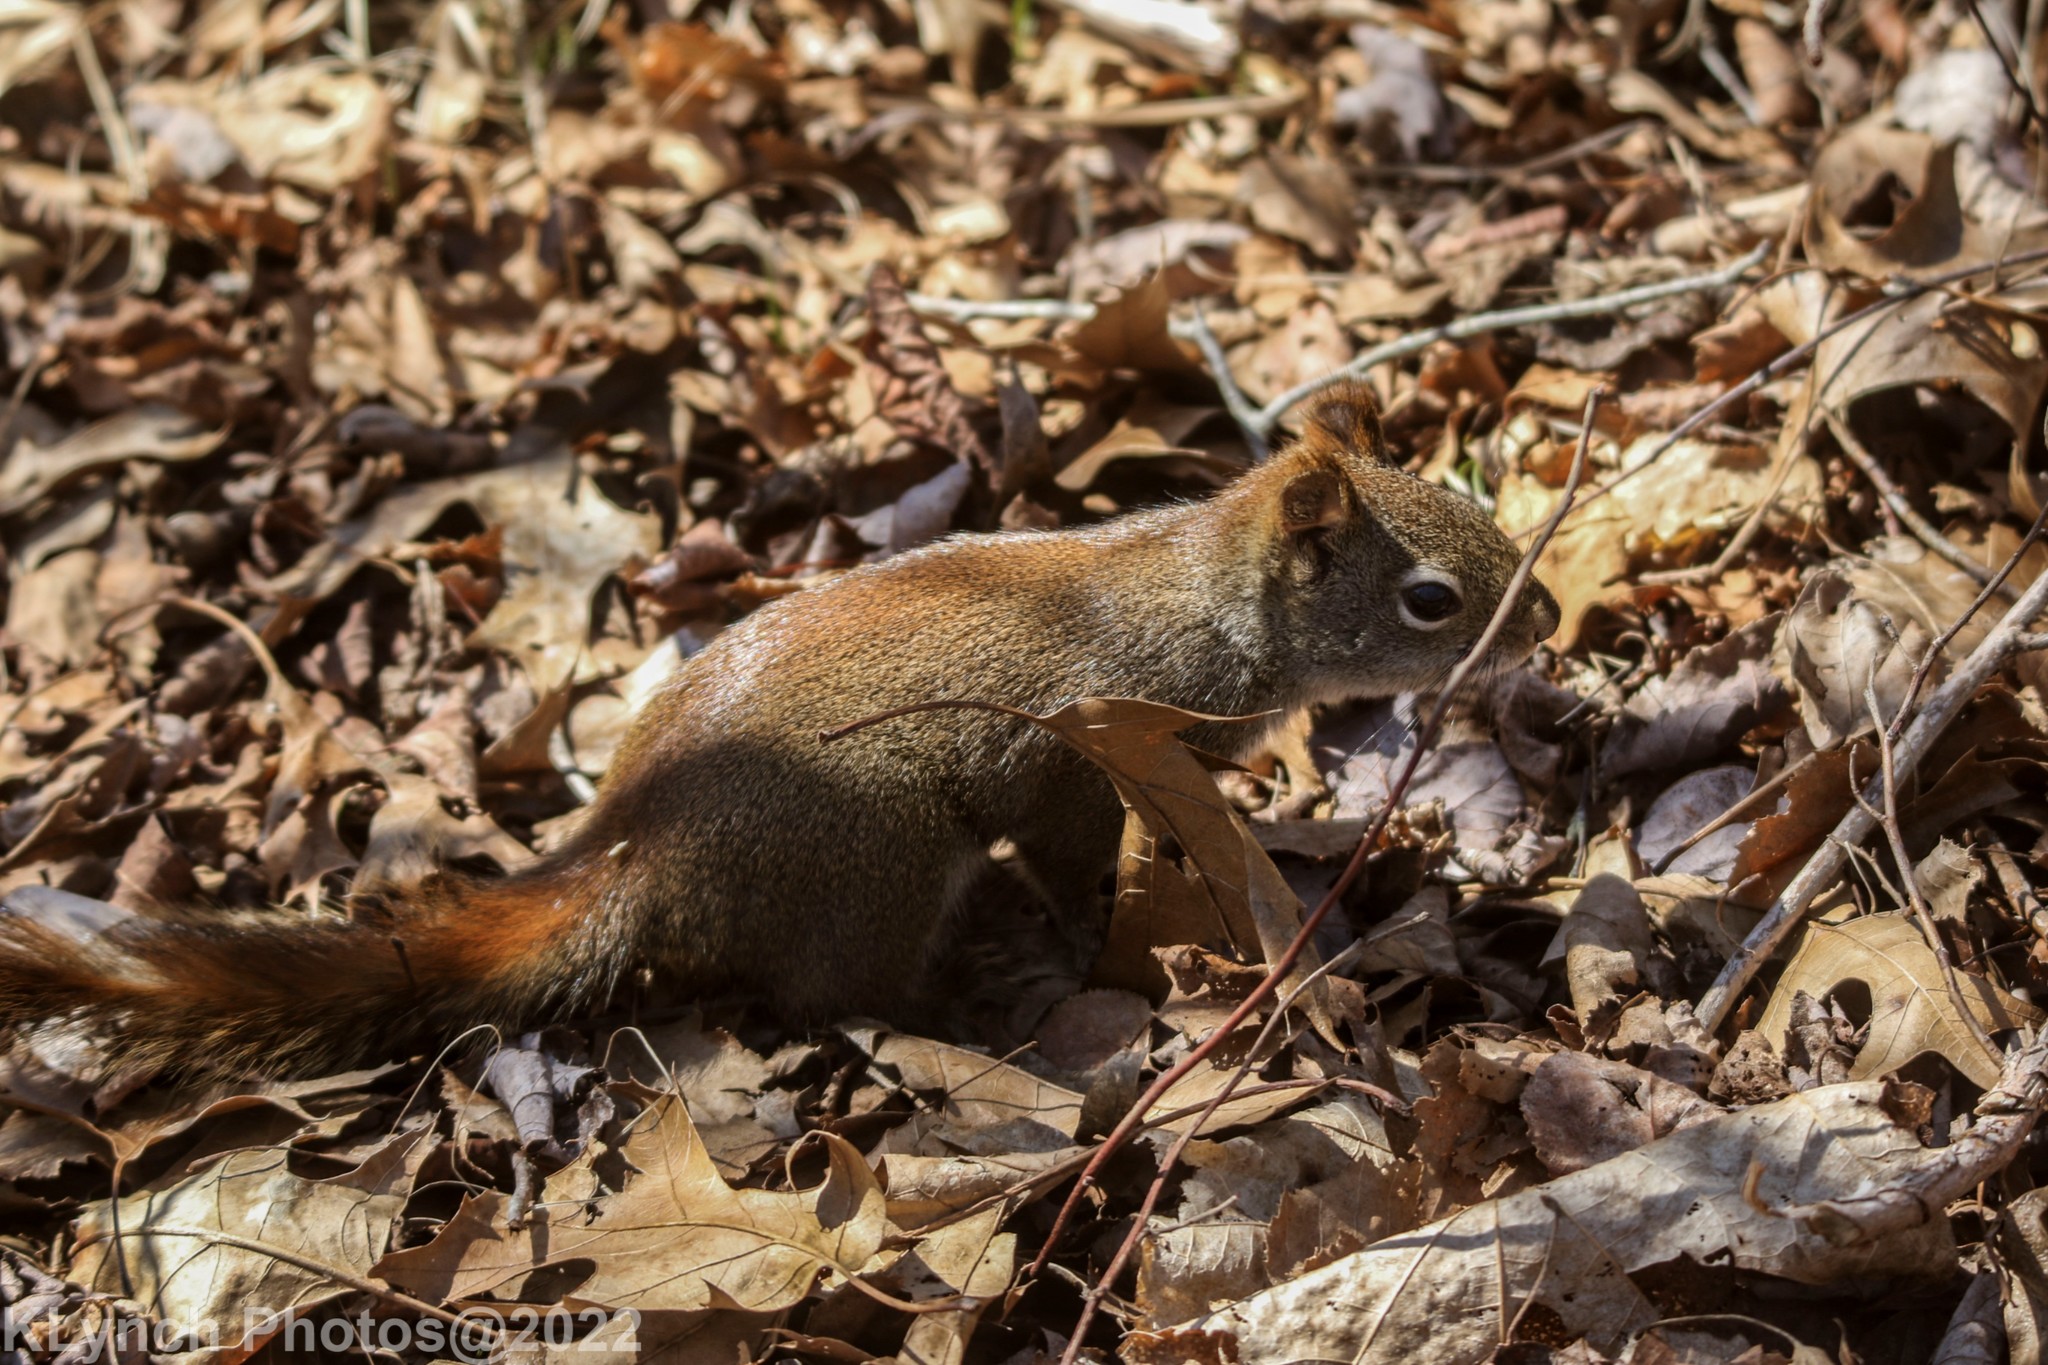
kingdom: Animalia
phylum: Chordata
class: Mammalia
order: Rodentia
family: Sciuridae
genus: Tamiasciurus
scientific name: Tamiasciurus hudsonicus
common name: Red squirrel
